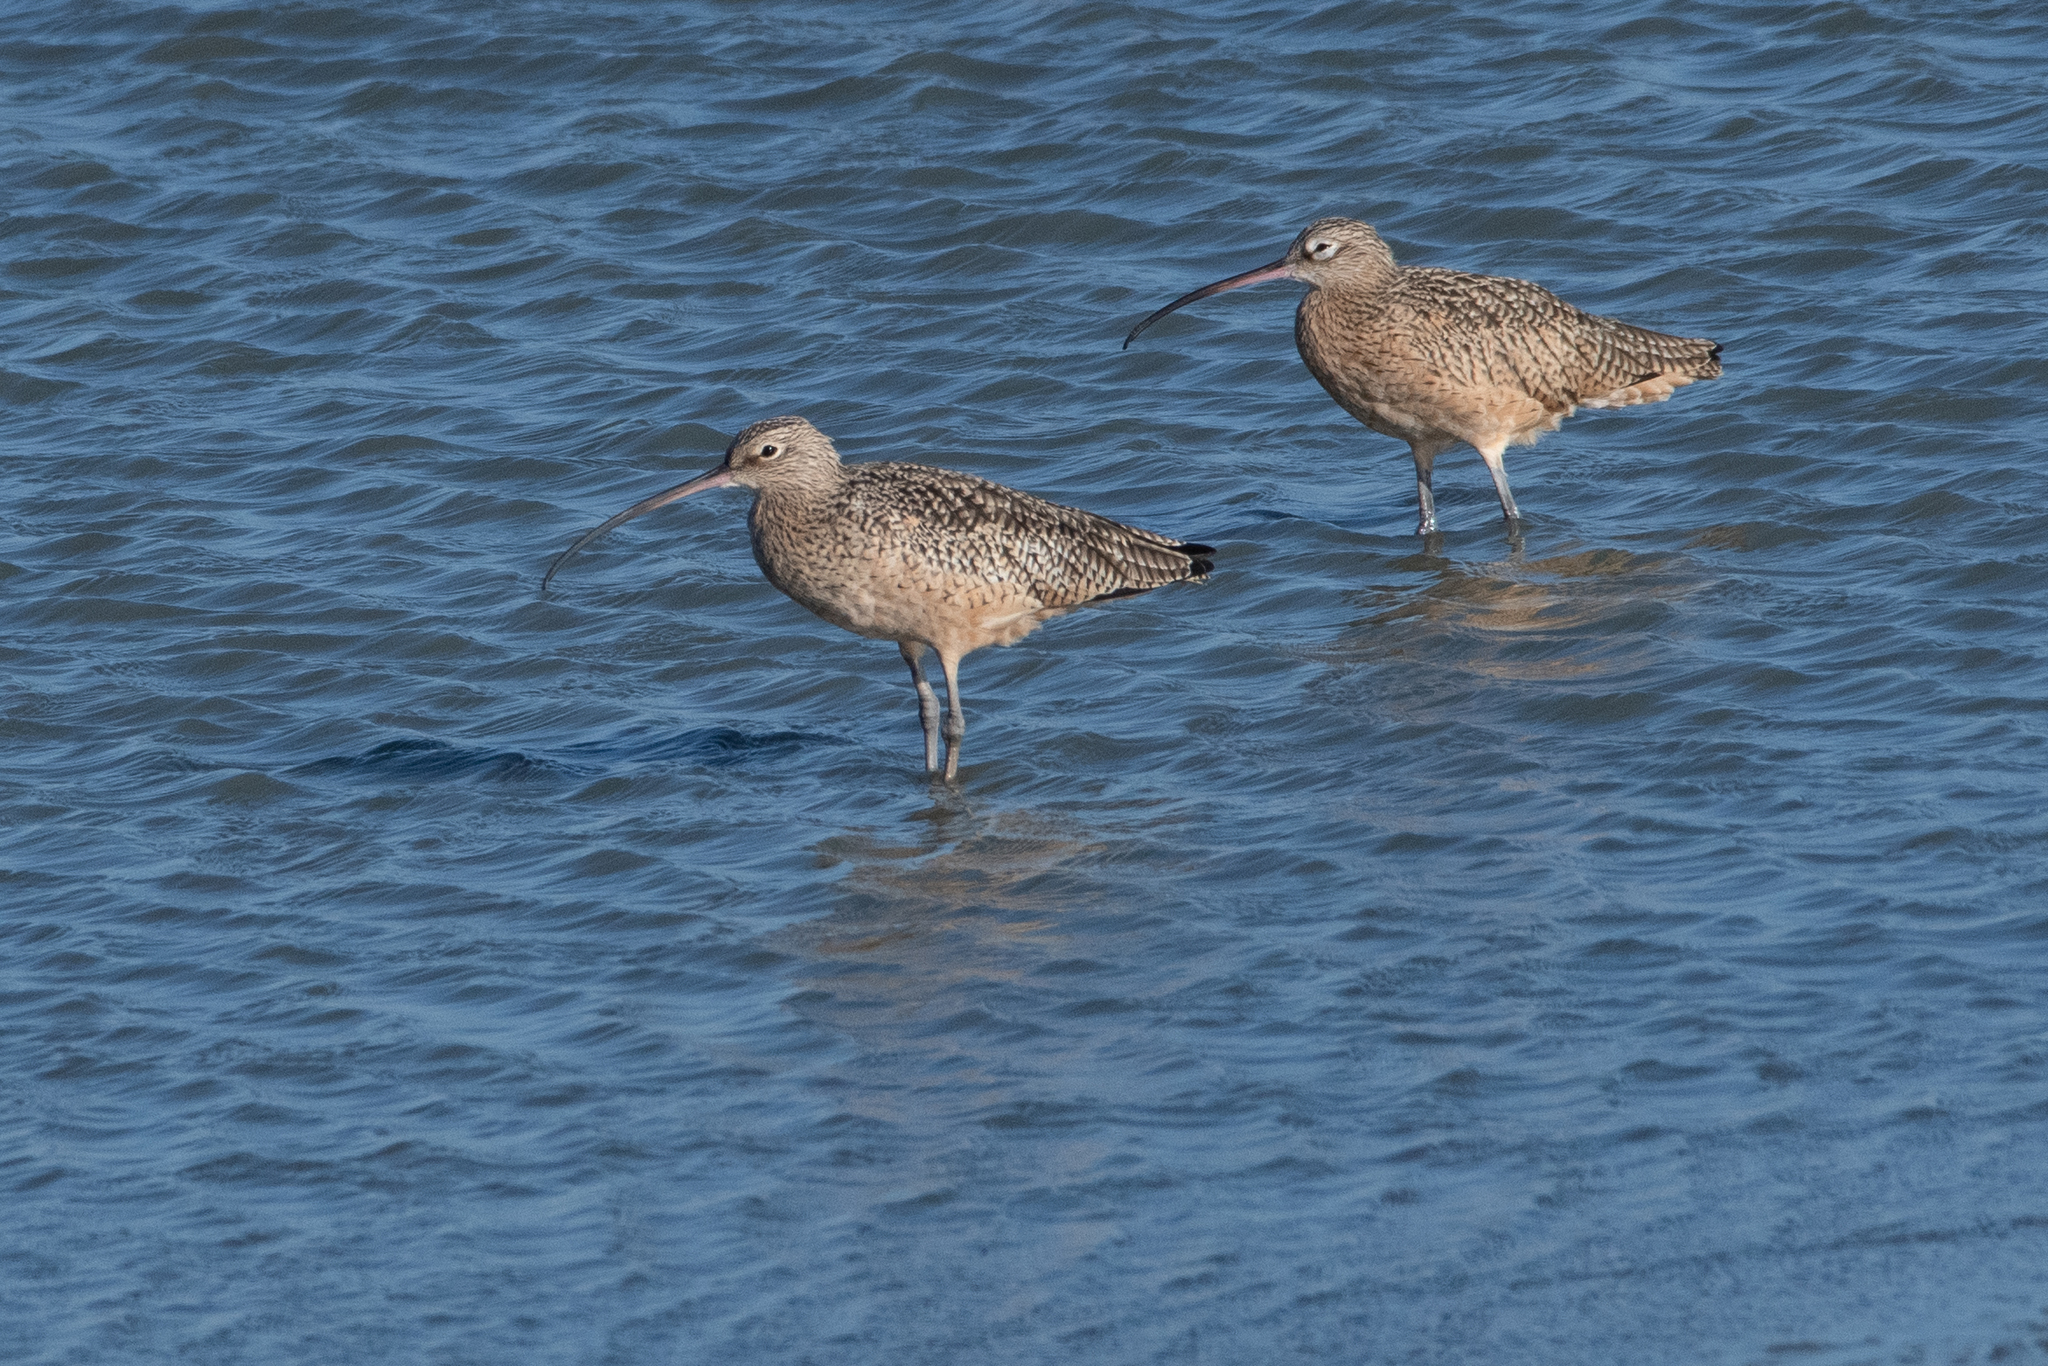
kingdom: Animalia
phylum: Chordata
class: Aves
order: Charadriiformes
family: Scolopacidae
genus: Numenius
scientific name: Numenius americanus
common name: Long-billed curlew
